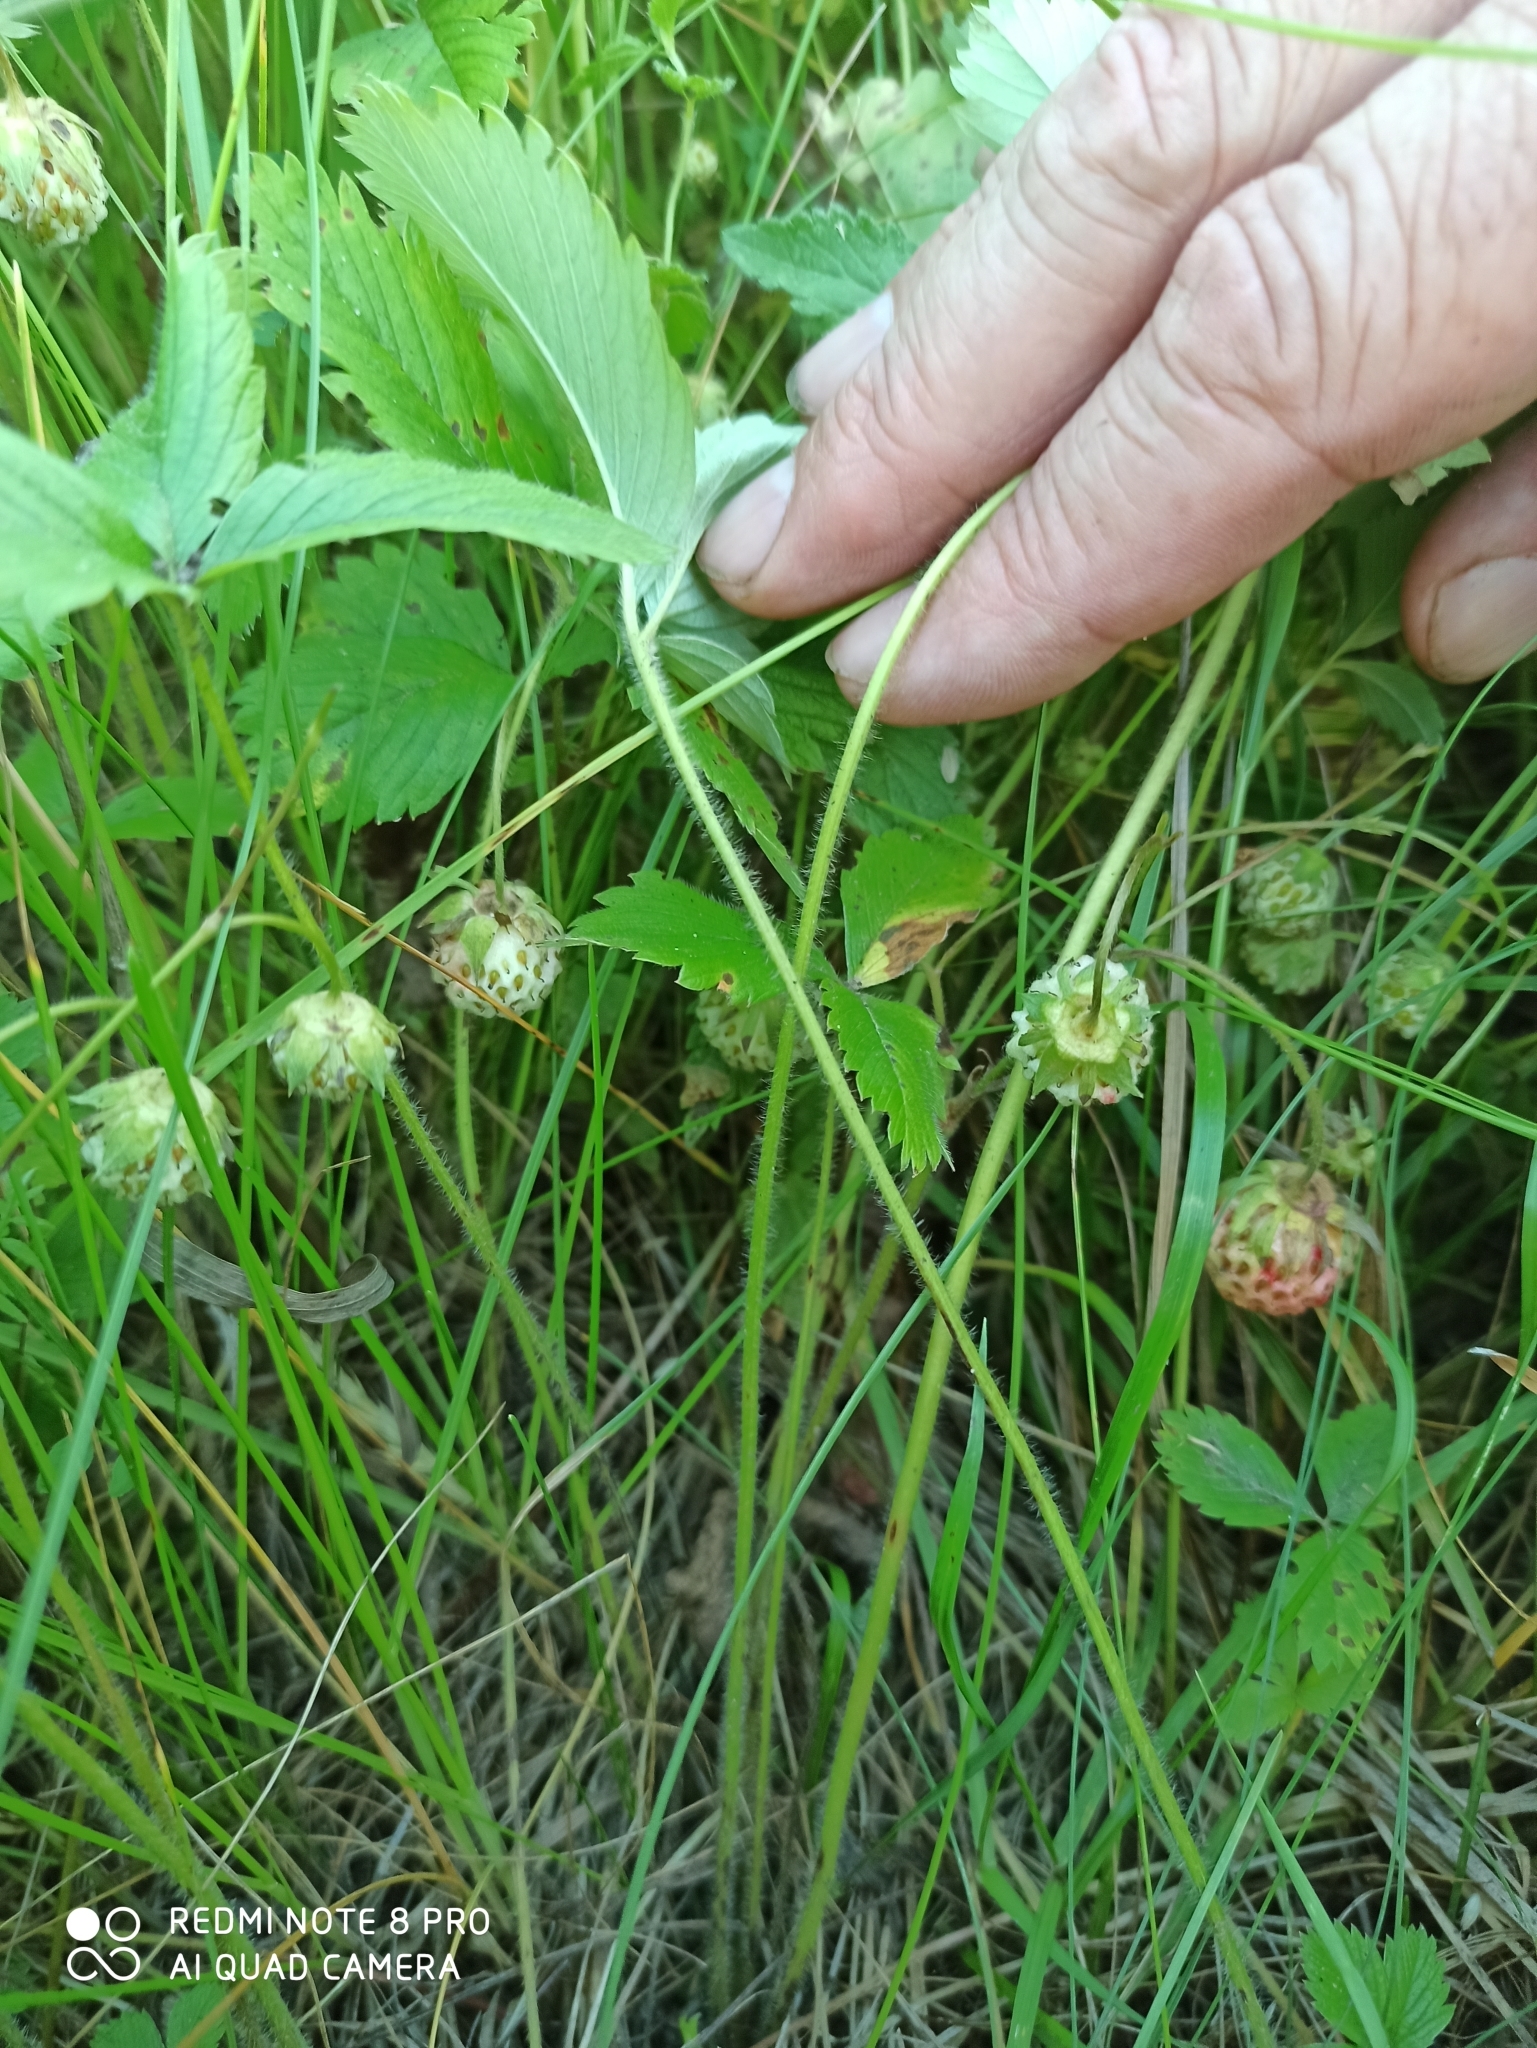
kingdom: Plantae
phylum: Tracheophyta
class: Magnoliopsida
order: Rosales
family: Rosaceae
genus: Fragaria
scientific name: Fragaria viridis
